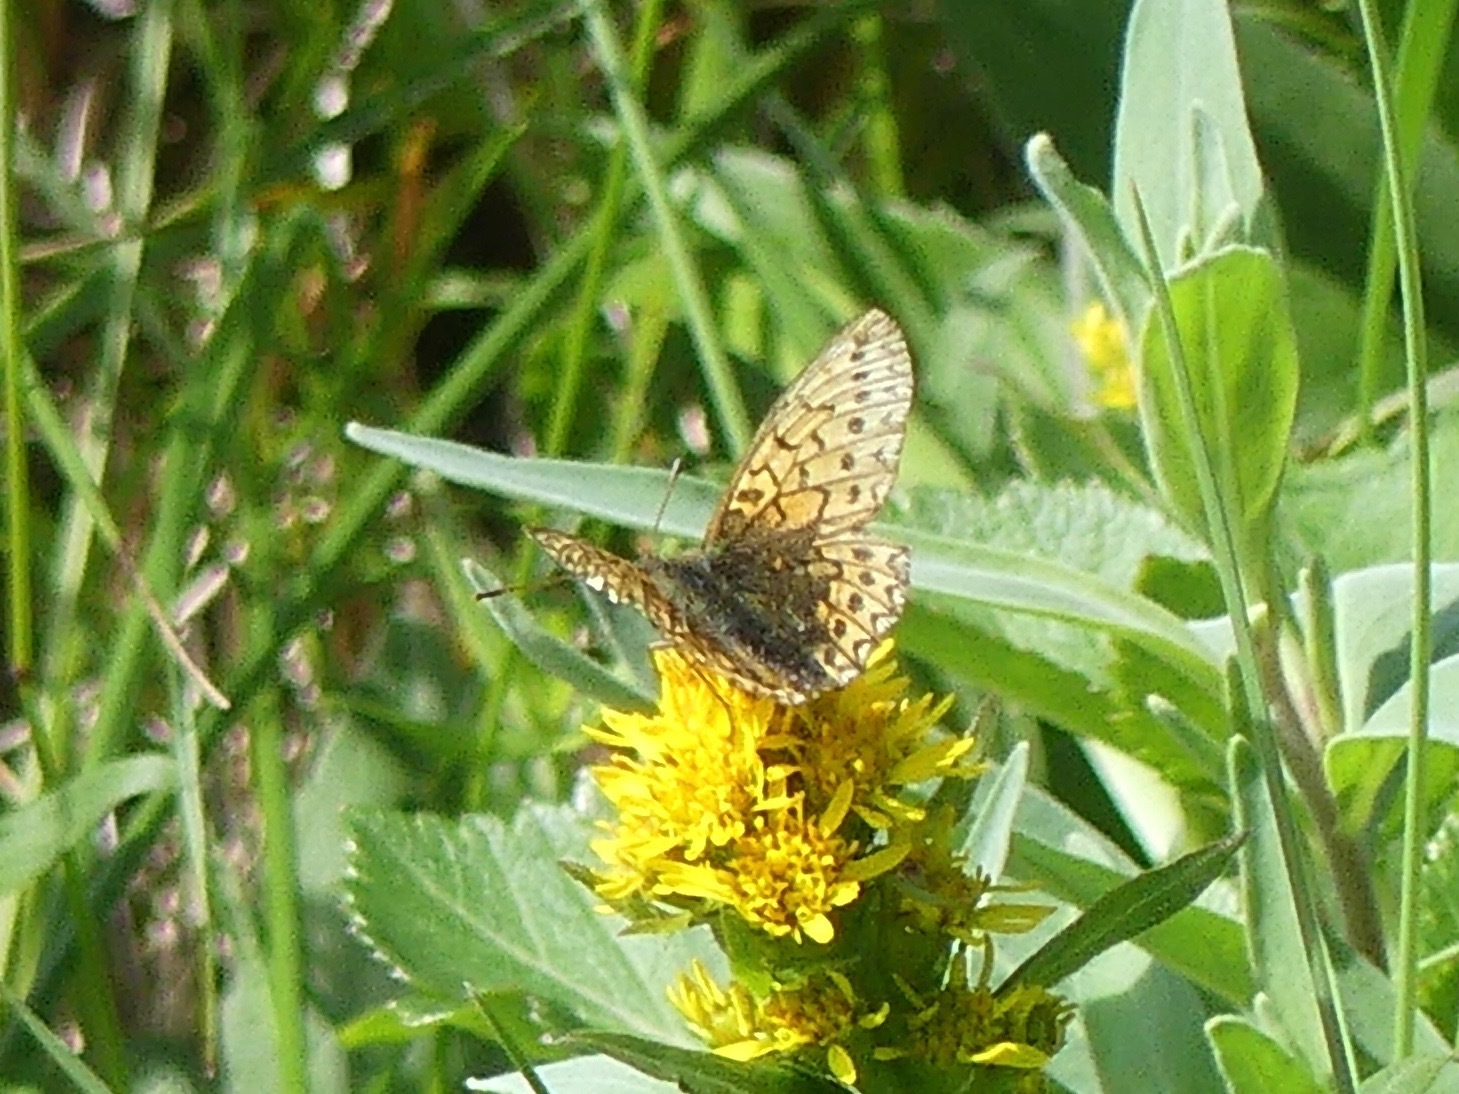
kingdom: Animalia
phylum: Arthropoda
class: Insecta
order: Lepidoptera
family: Nymphalidae
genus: Boloria
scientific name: Boloria eunomia
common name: Bog fritillary
